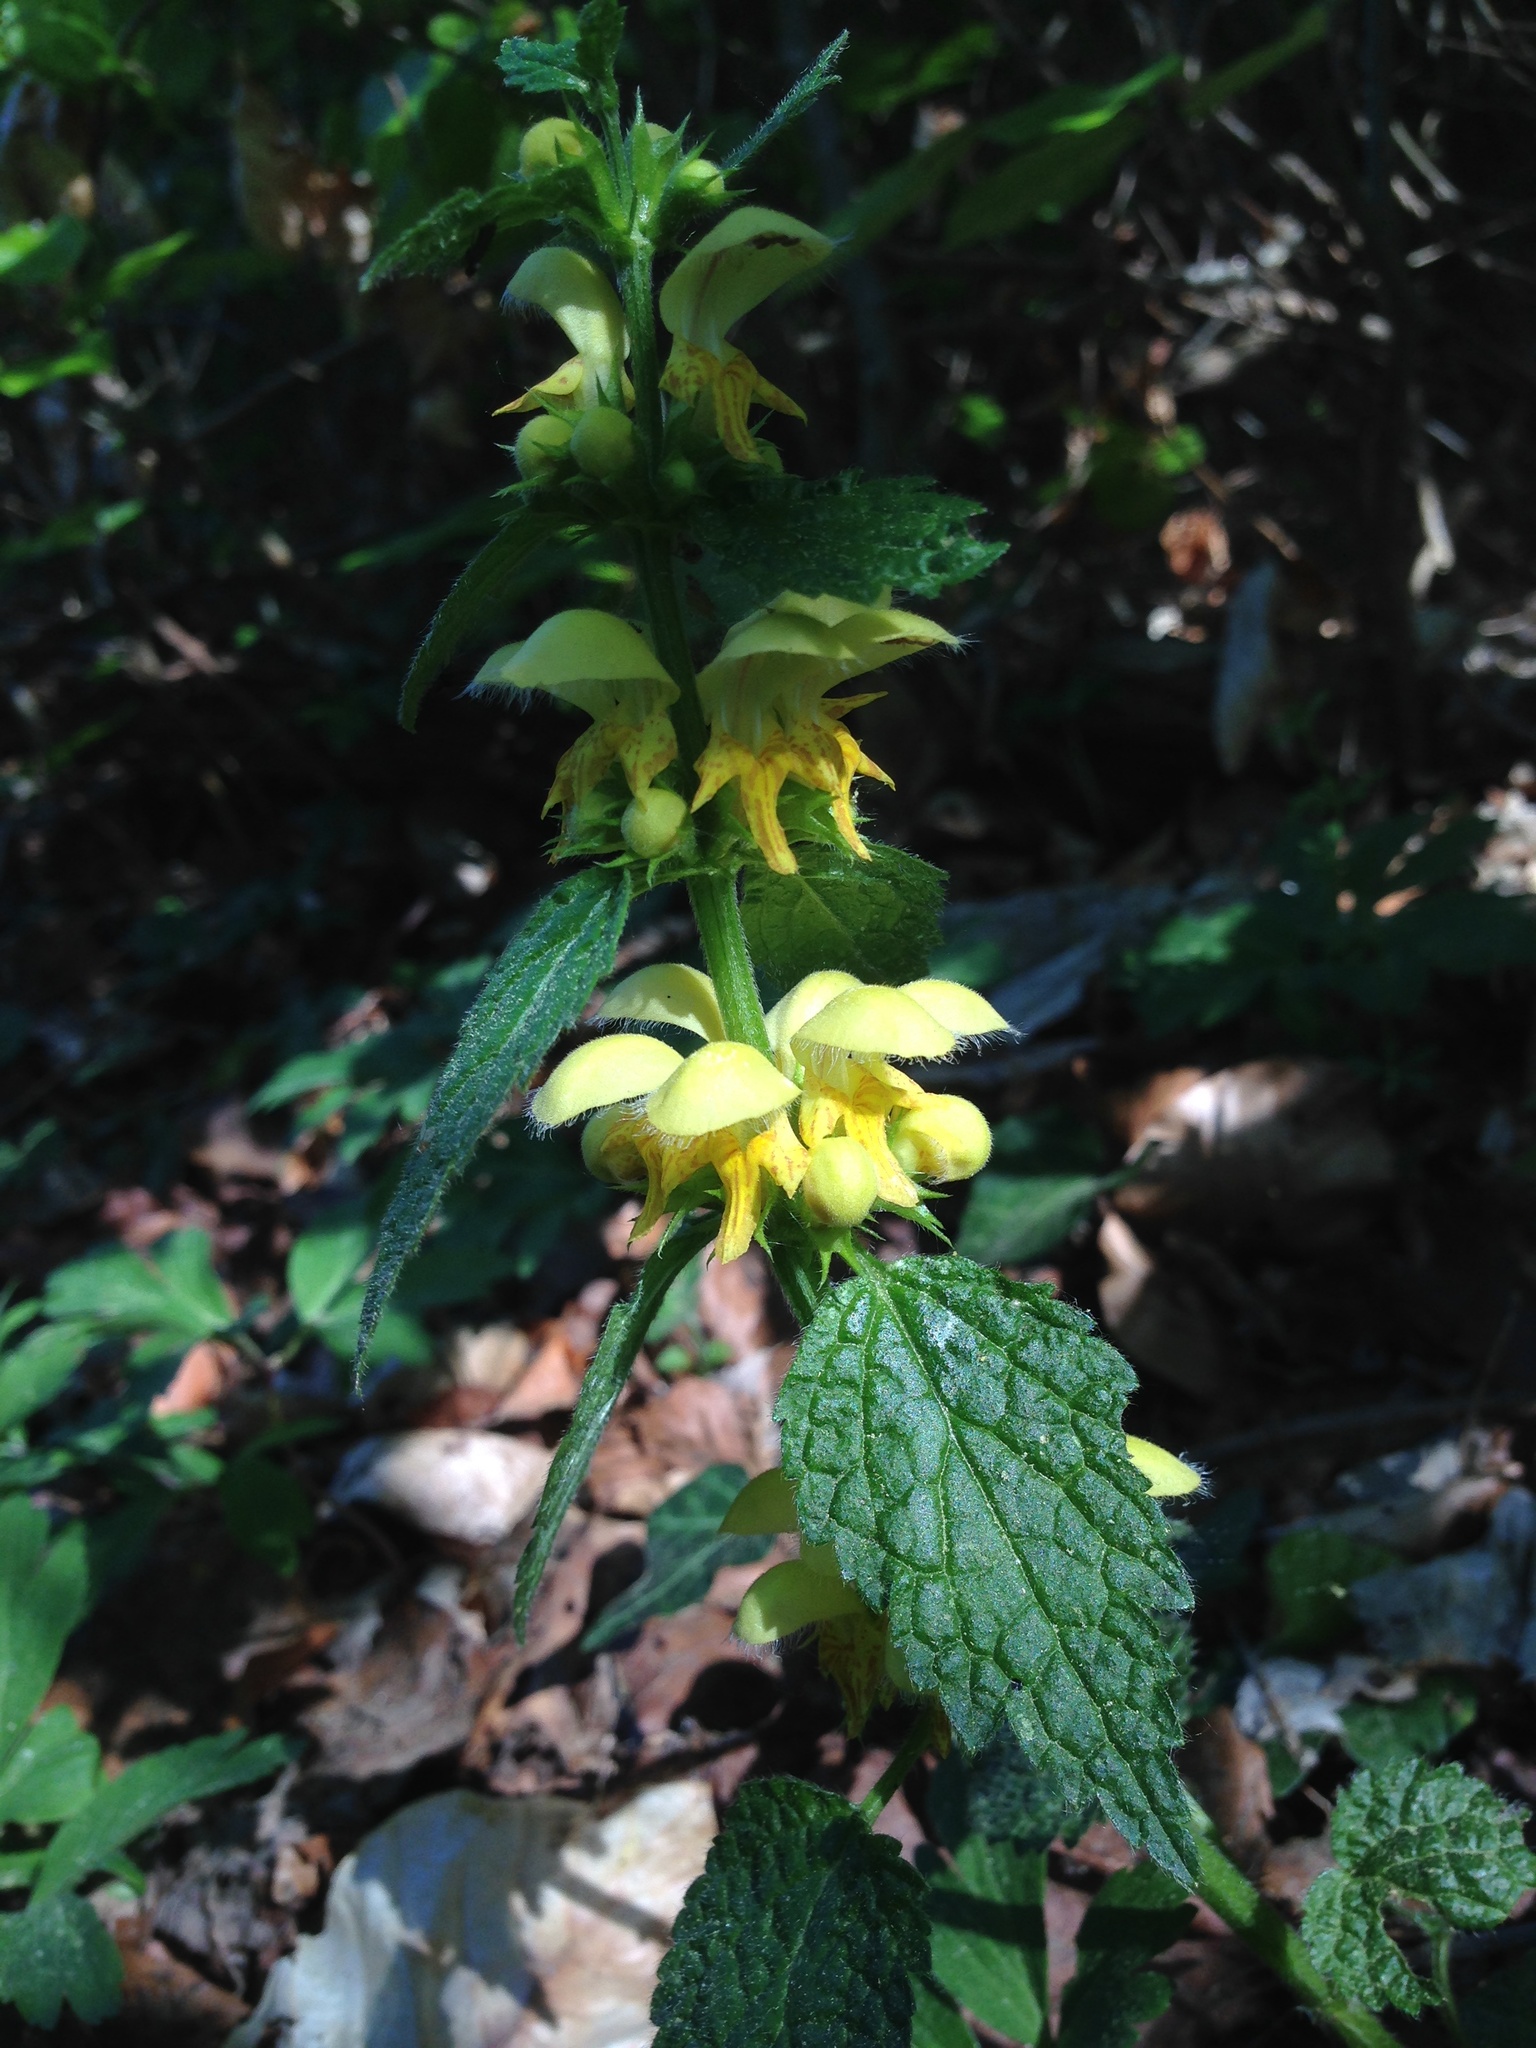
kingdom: Plantae
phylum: Tracheophyta
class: Magnoliopsida
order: Lamiales
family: Lamiaceae
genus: Lamium
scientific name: Lamium galeobdolon
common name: Yellow archangel
